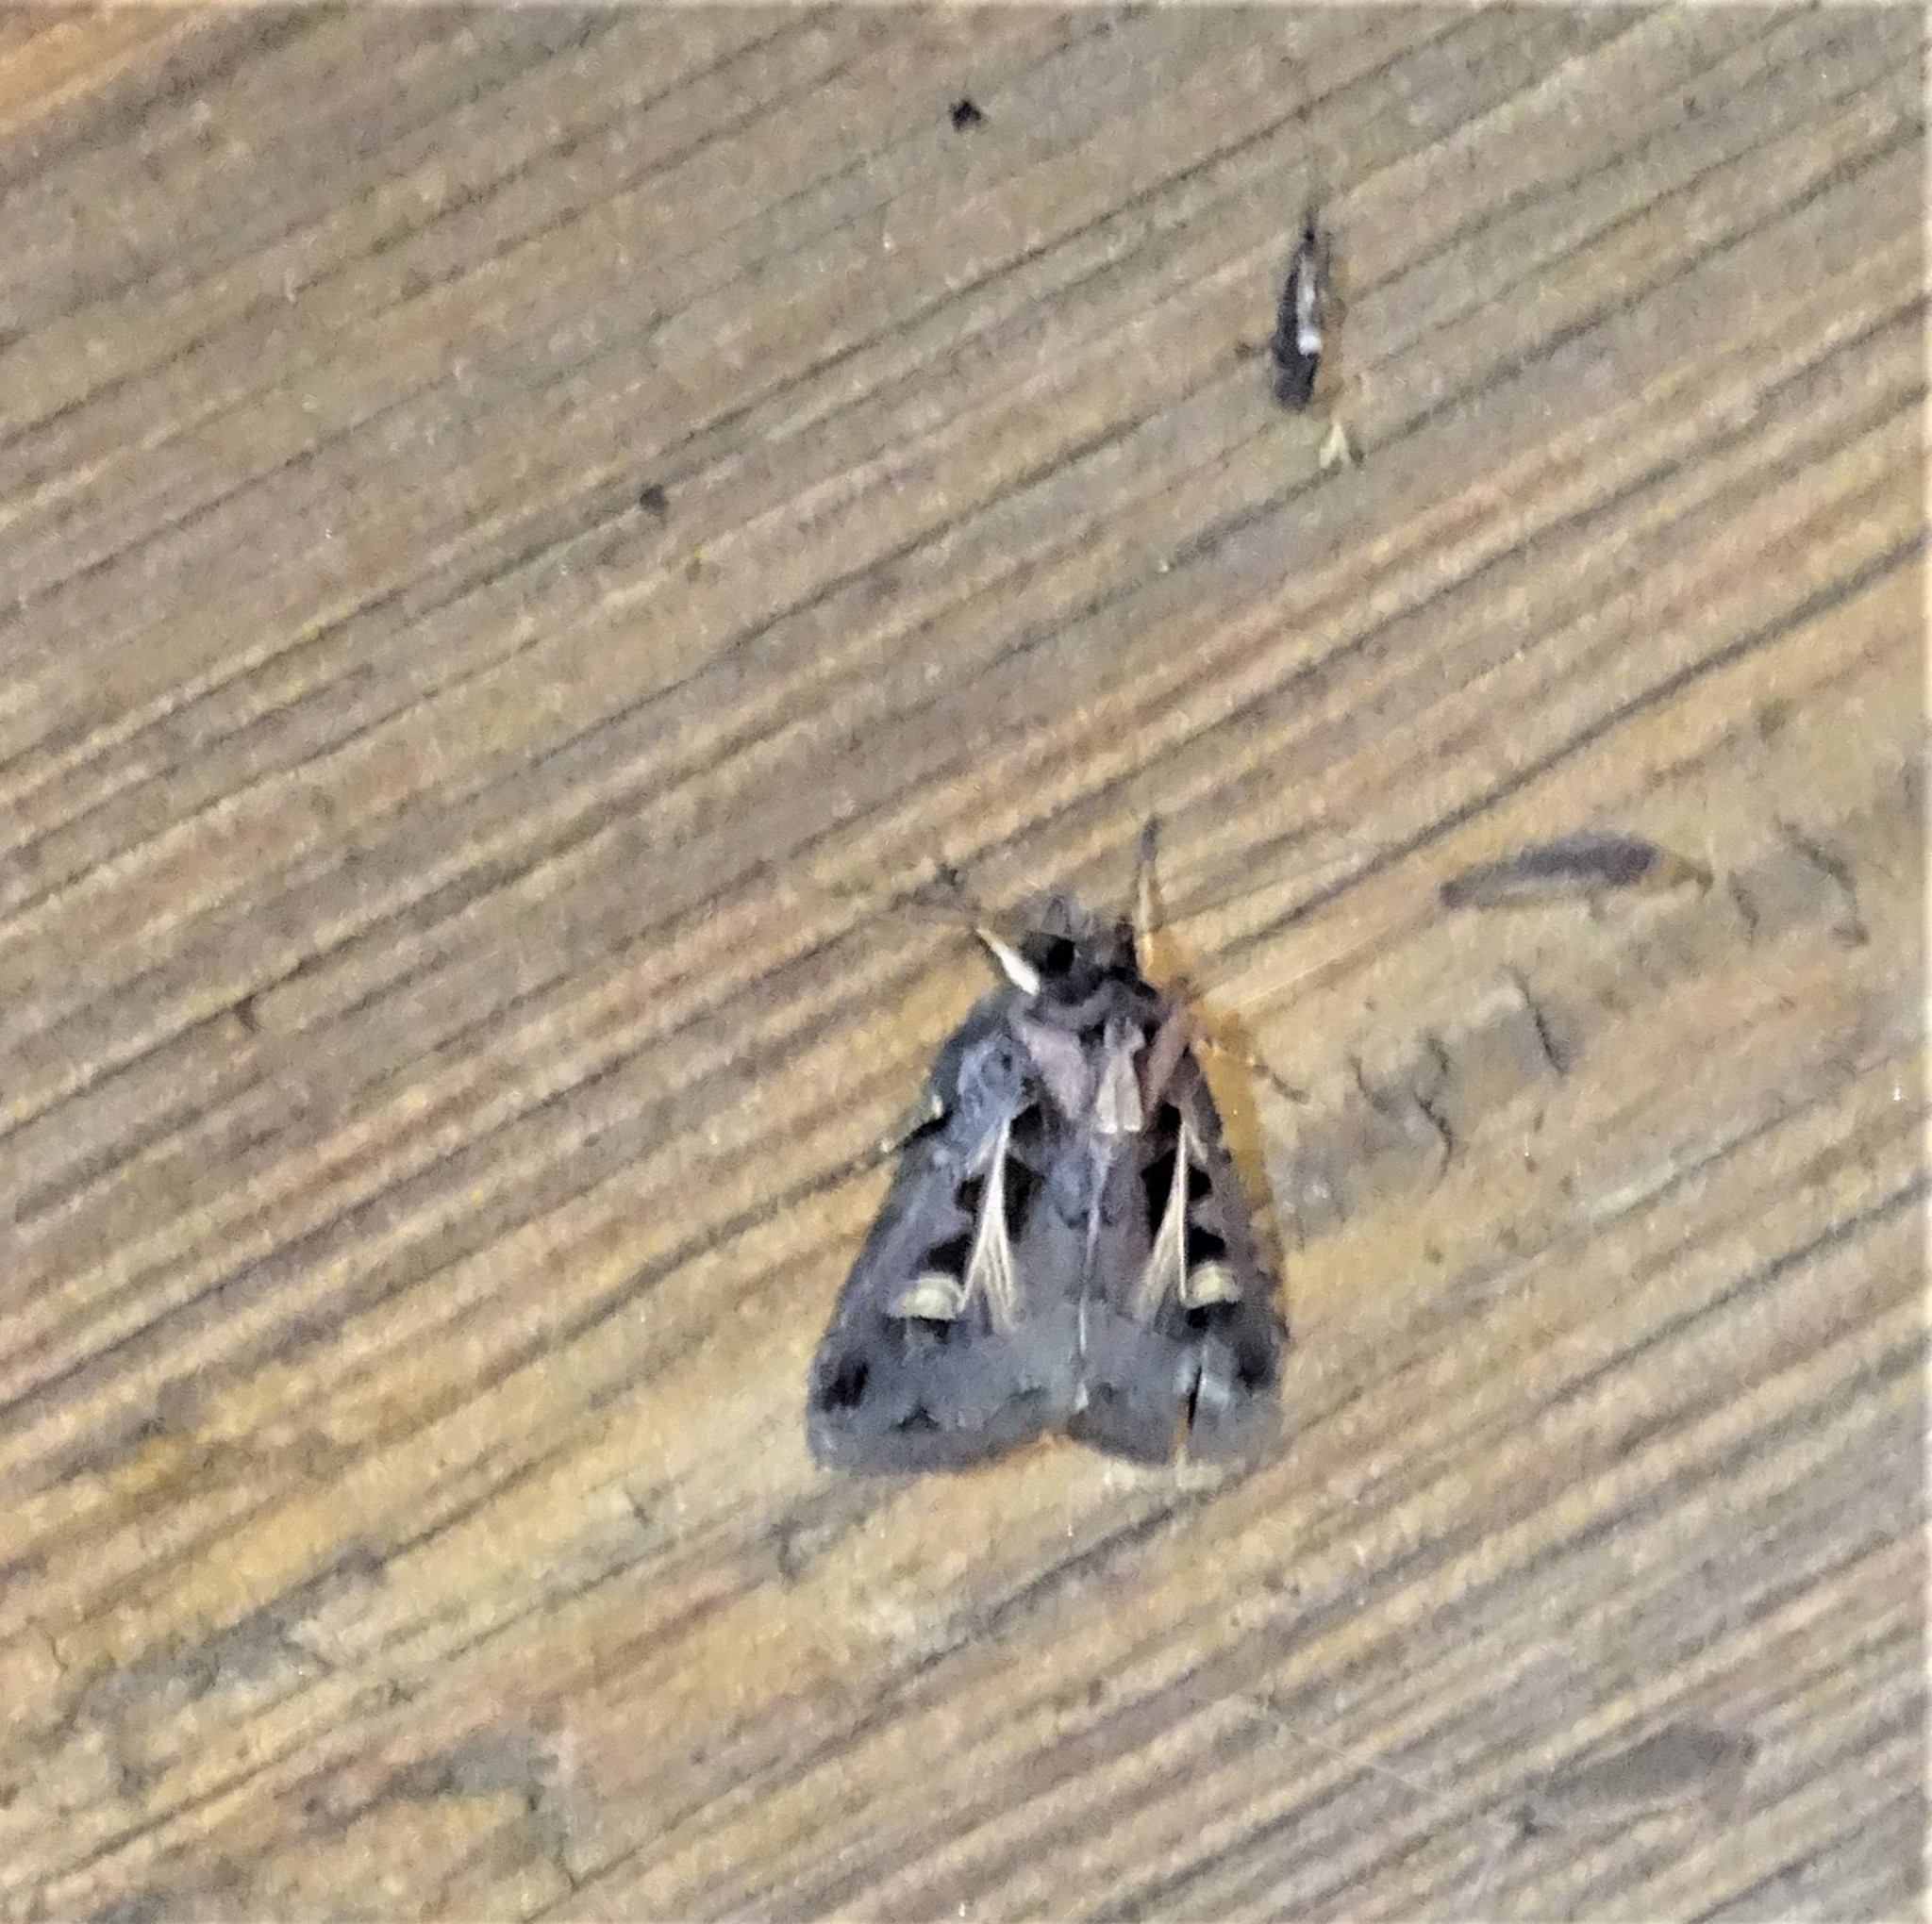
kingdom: Animalia
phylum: Arthropoda
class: Insecta
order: Lepidoptera
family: Noctuidae
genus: Feltia
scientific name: Feltia herilis
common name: Master's dart
